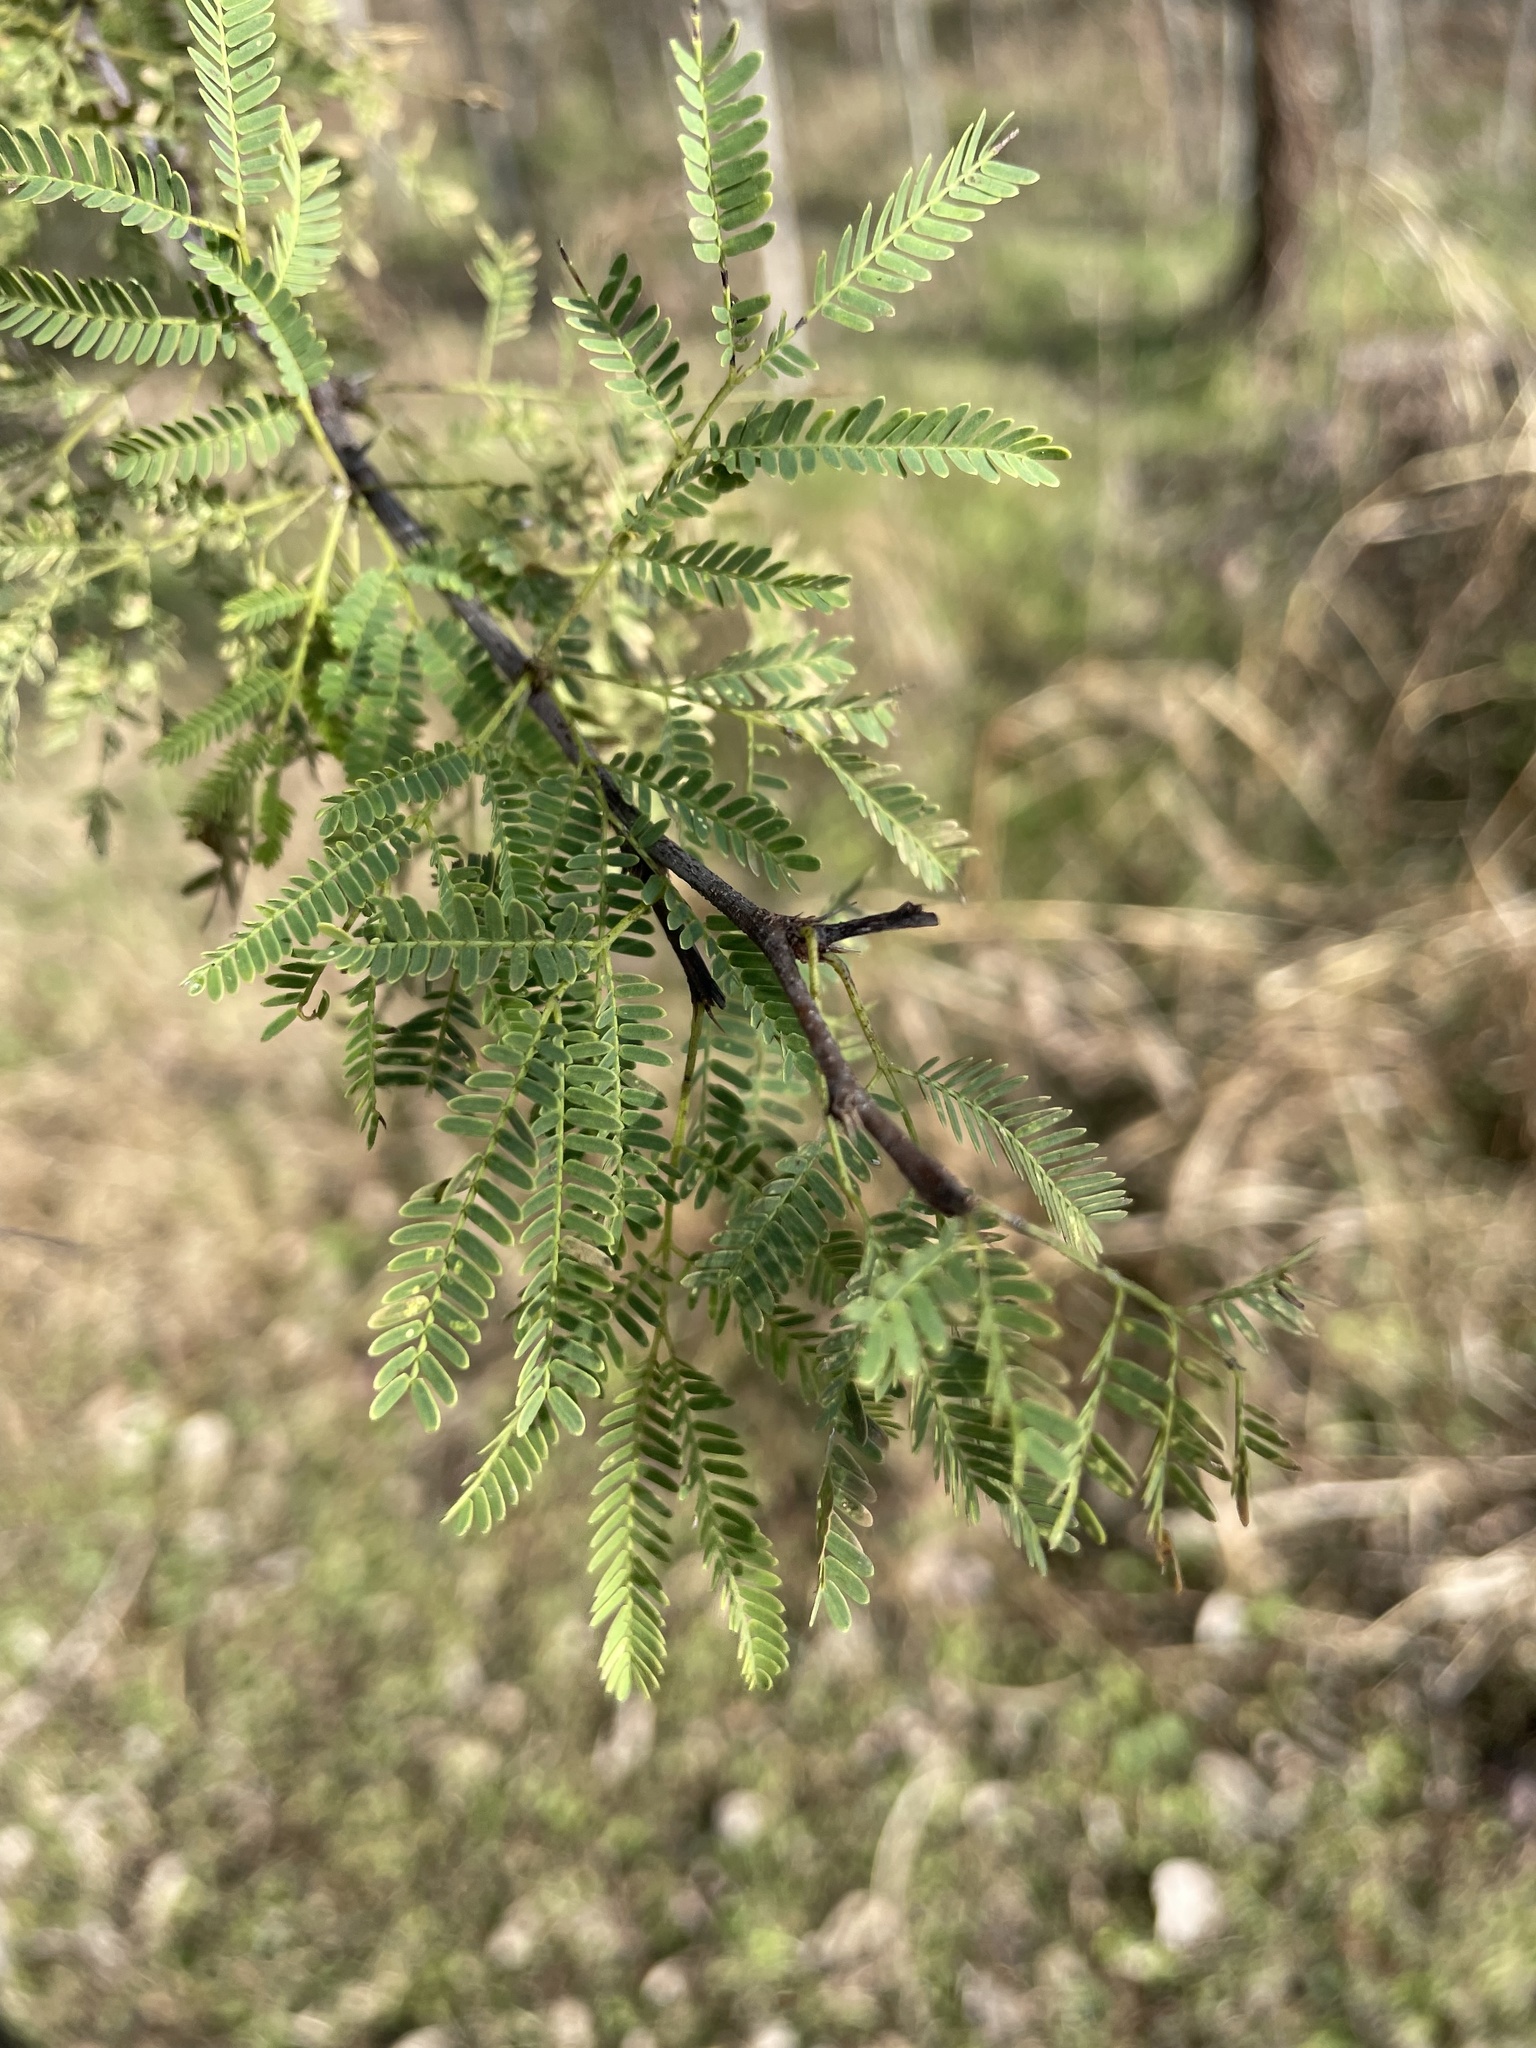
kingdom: Plantae
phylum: Tracheophyta
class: Magnoliopsida
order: Fabales
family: Fabaceae
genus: Vachellia
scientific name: Vachellia farnesiana
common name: Sweet acacia
